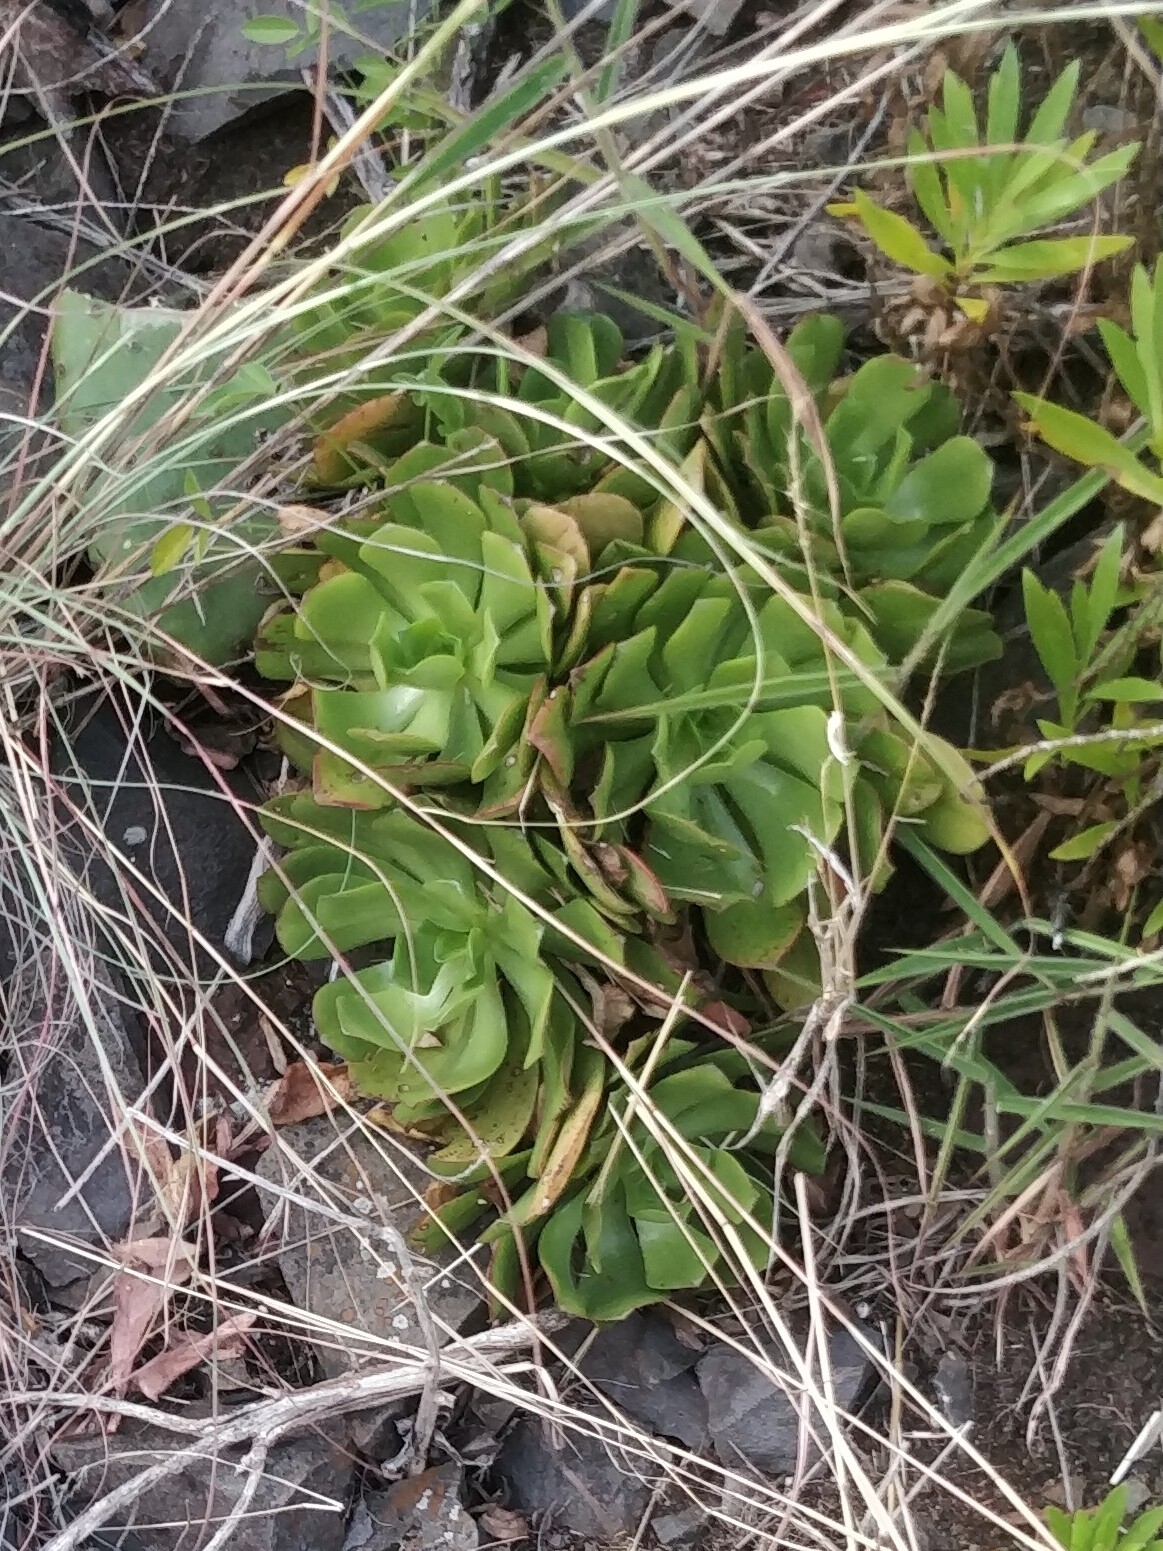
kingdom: Plantae
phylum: Tracheophyta
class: Magnoliopsida
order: Saxifragales
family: Crassulaceae
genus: Aeonium
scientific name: Aeonium glutinosum
